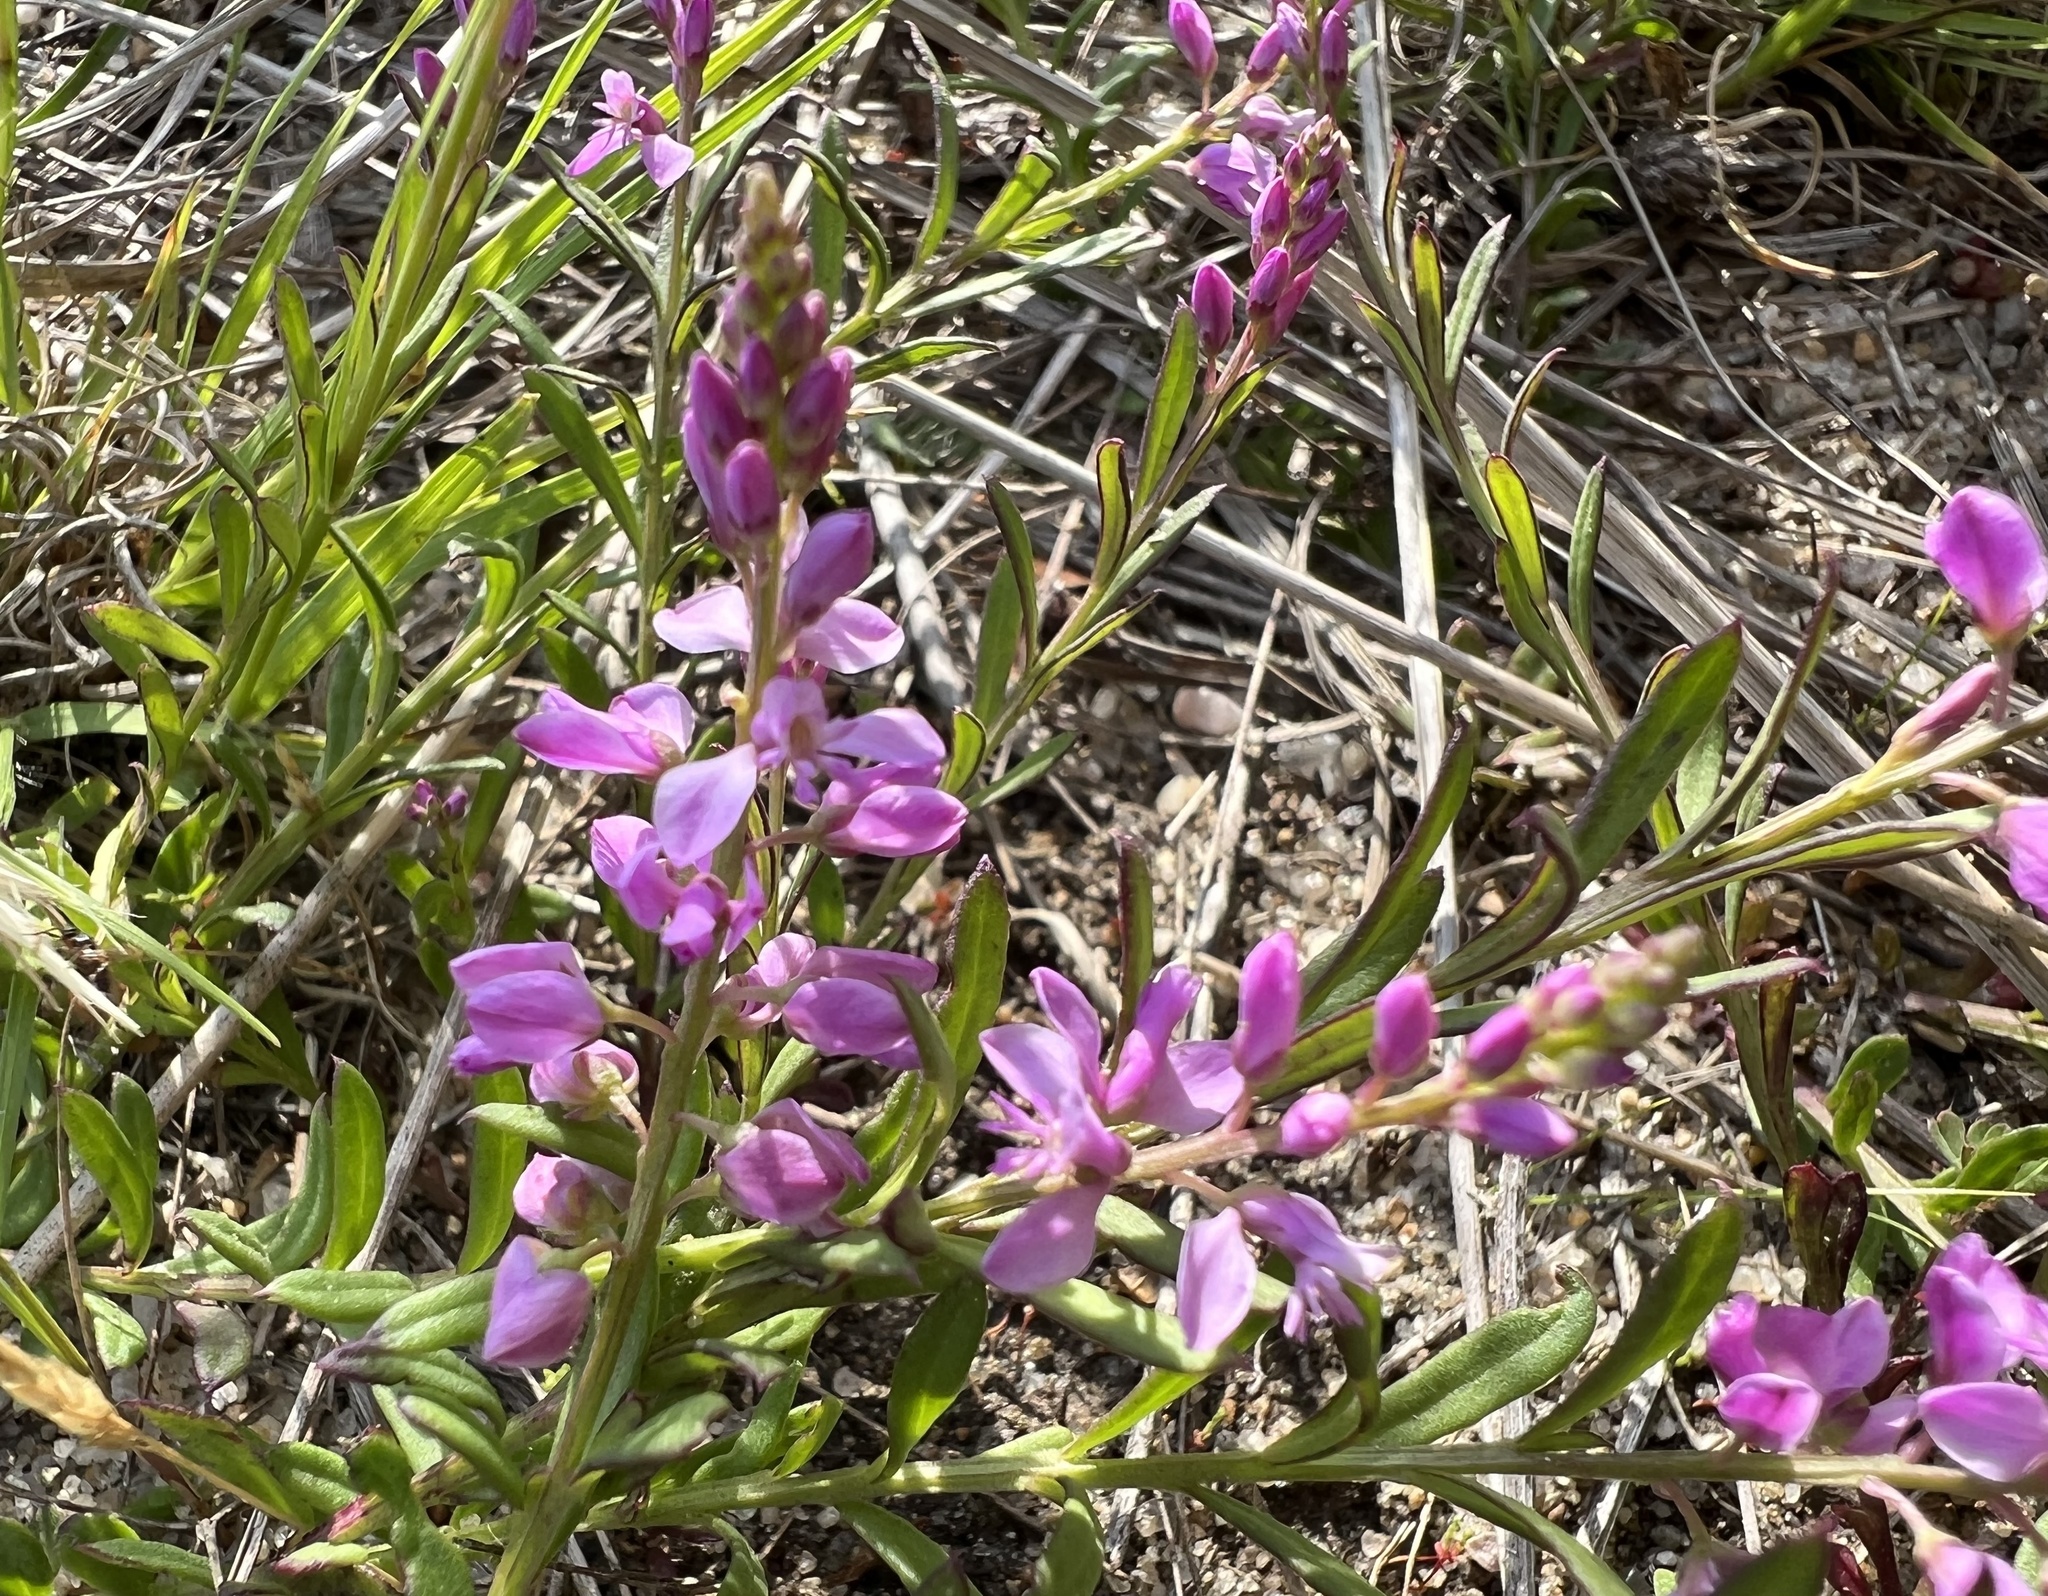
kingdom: Plantae
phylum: Tracheophyta
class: Magnoliopsida
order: Fabales
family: Polygalaceae
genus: Polygala
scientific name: Polygala polygama
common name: Bitter milkwort
